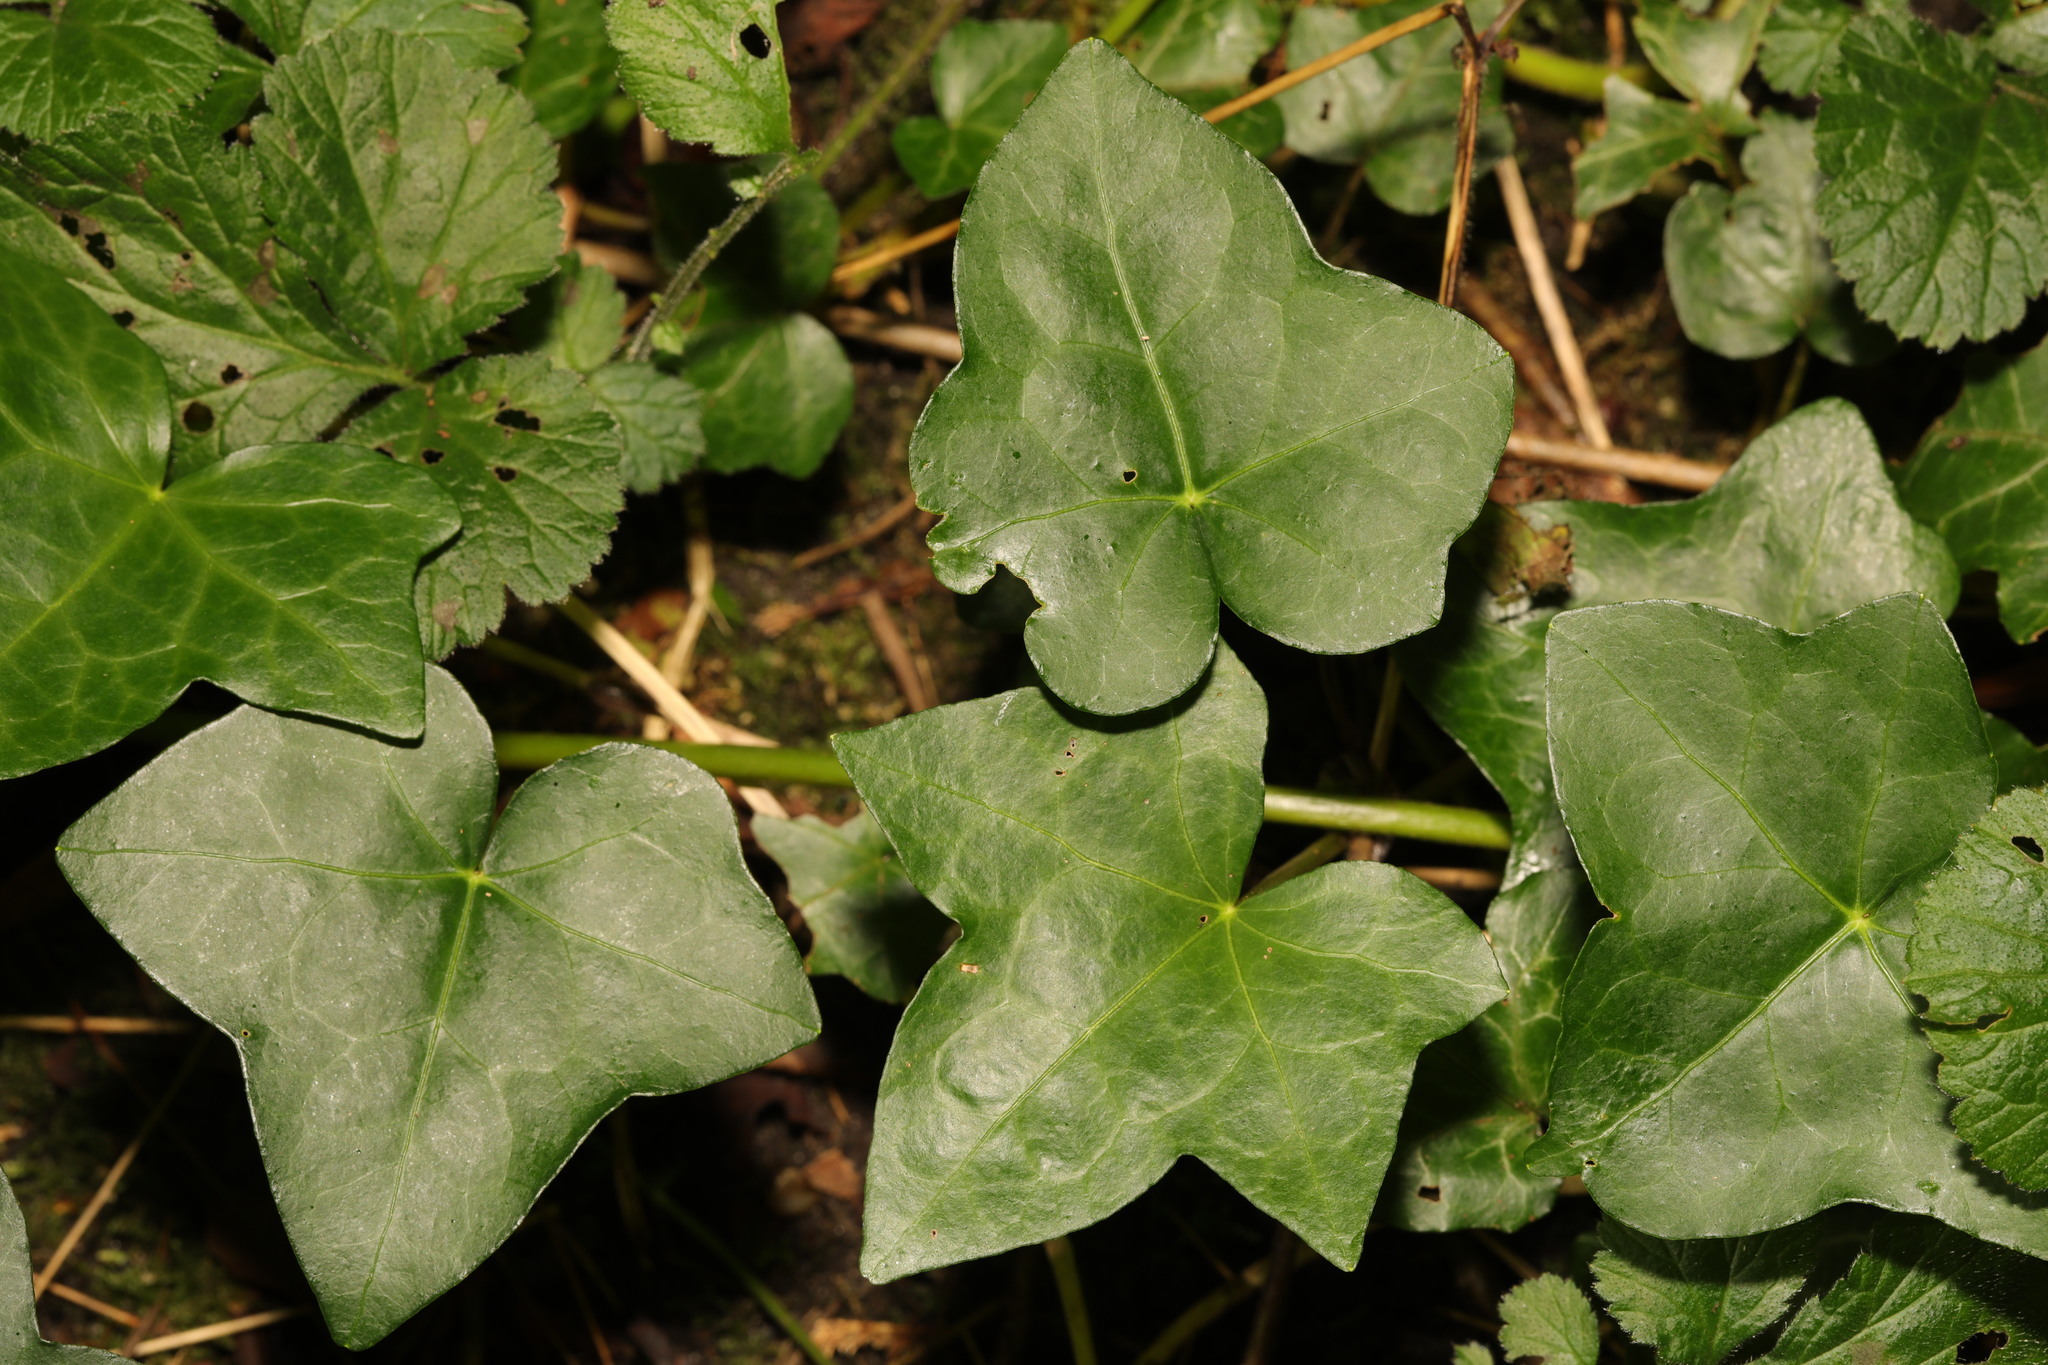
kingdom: Plantae
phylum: Tracheophyta
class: Magnoliopsida
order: Apiales
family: Araliaceae
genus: Hedera
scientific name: Hedera helix
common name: Ivy
